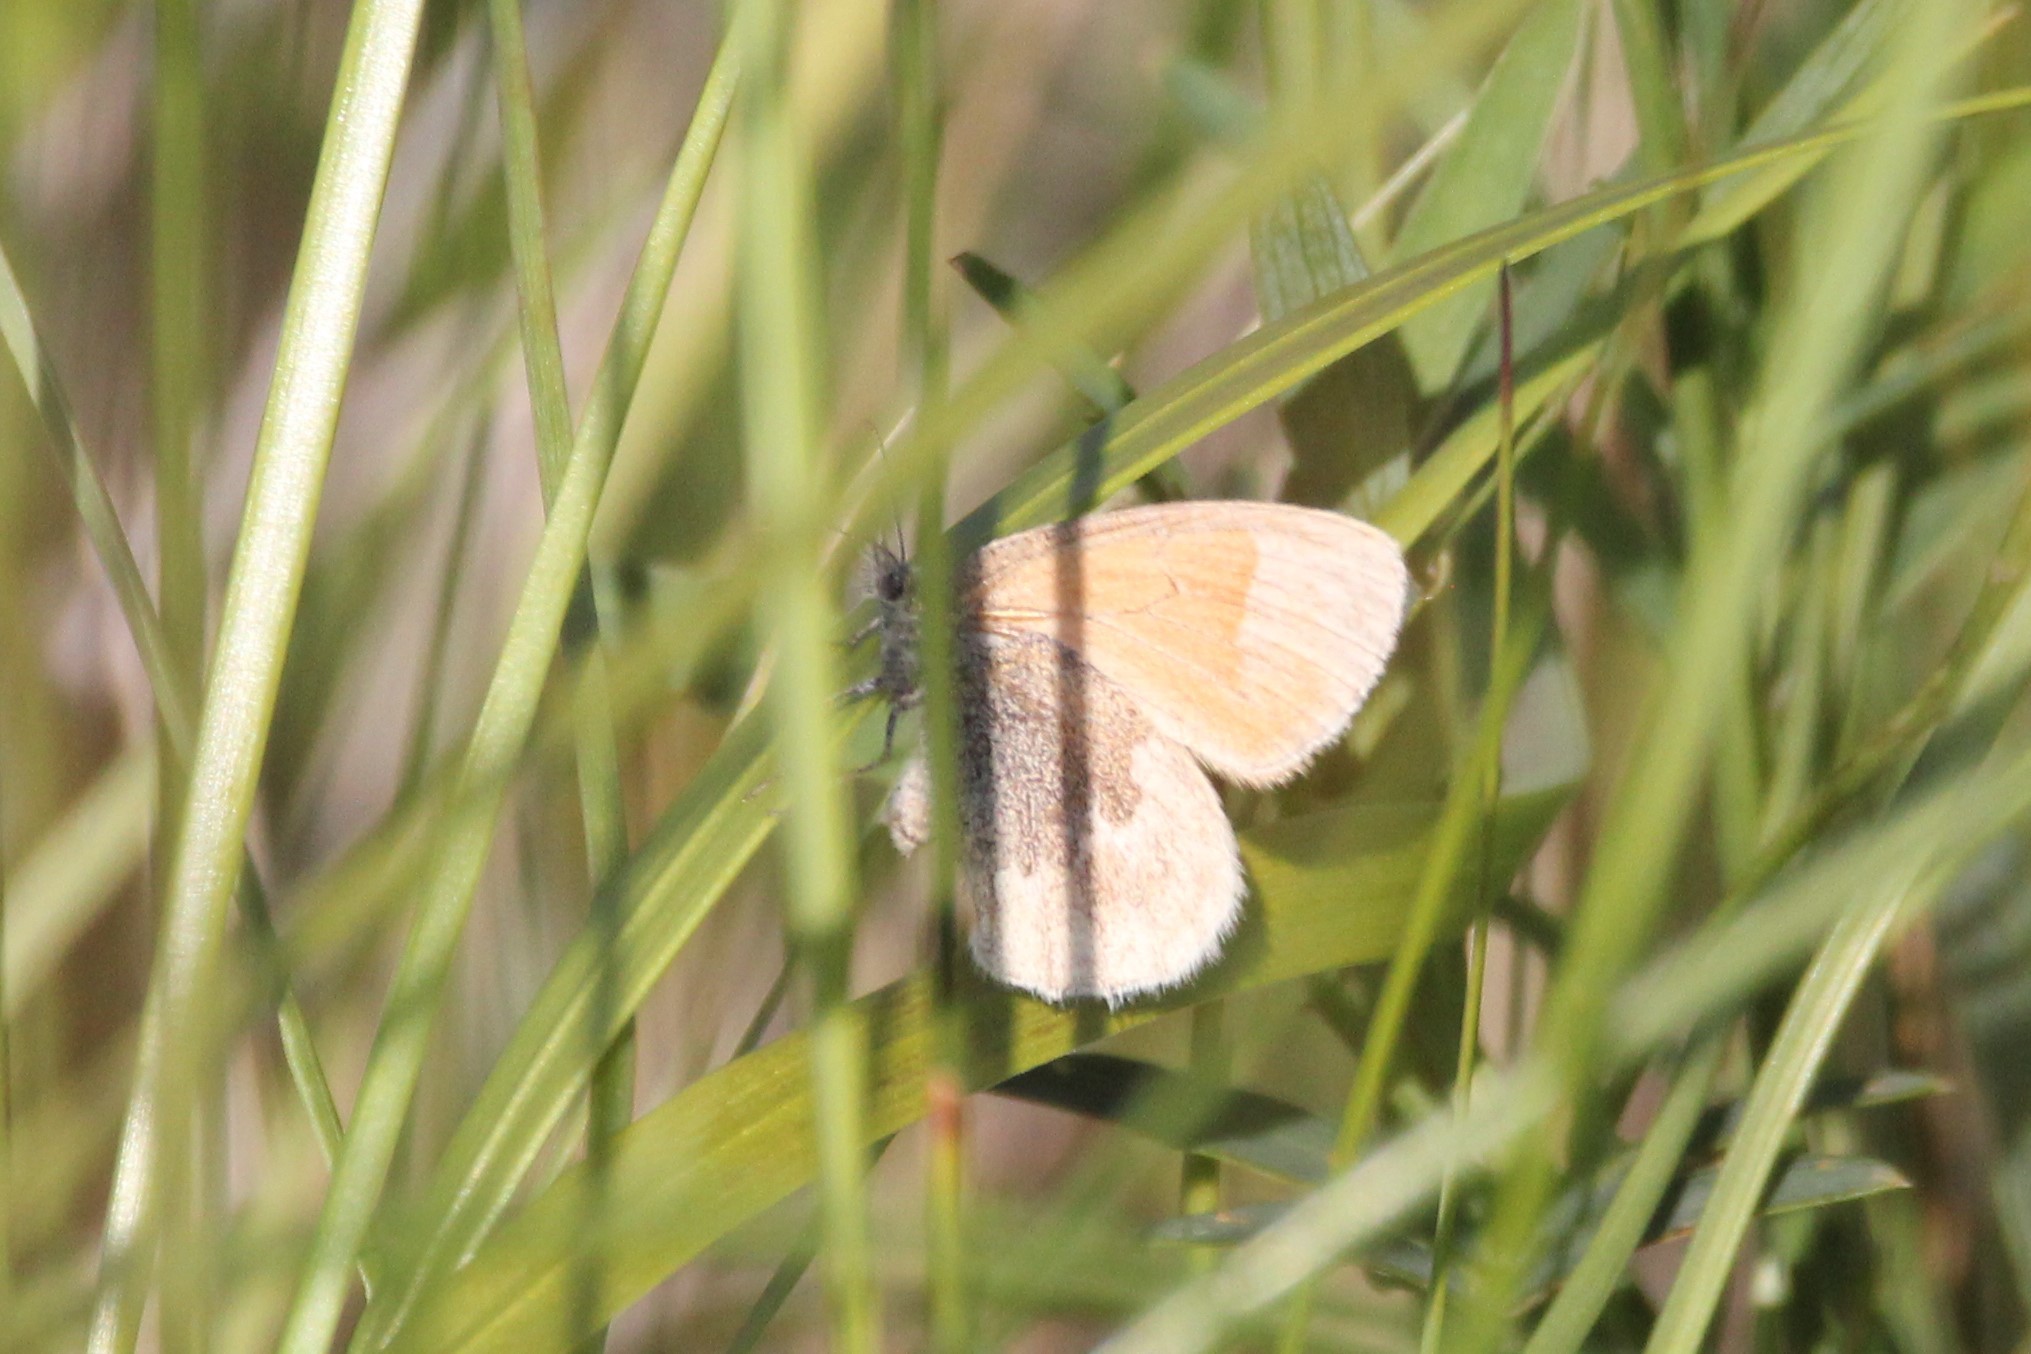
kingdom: Animalia
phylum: Arthropoda
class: Insecta
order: Lepidoptera
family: Nymphalidae
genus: Coenonympha
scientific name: Coenonympha california
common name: Common ringlet
